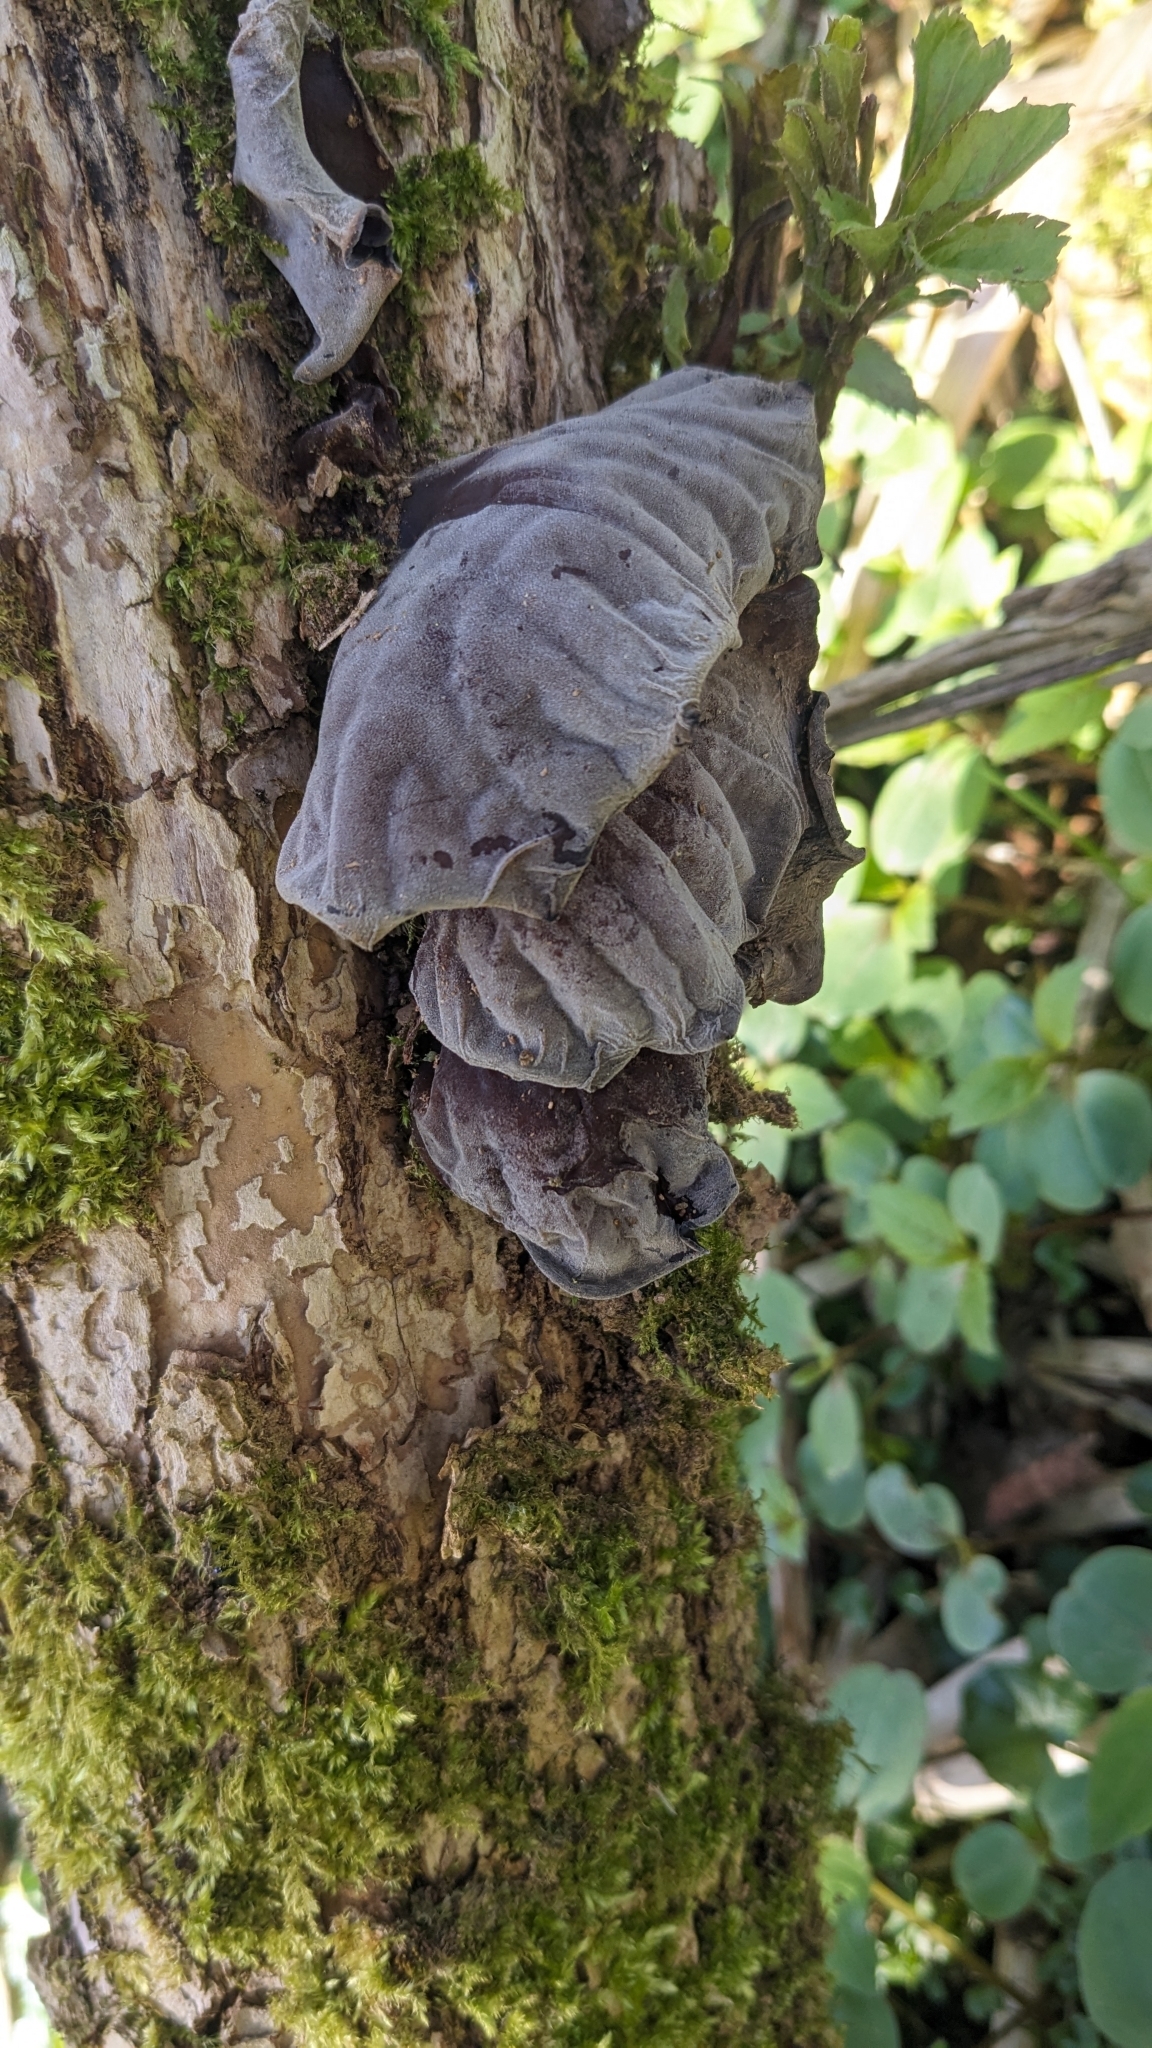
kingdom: Fungi
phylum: Basidiomycota
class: Agaricomycetes
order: Auriculariales
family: Auriculariaceae
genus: Auricularia
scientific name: Auricularia auricula-judae
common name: Jelly ear
